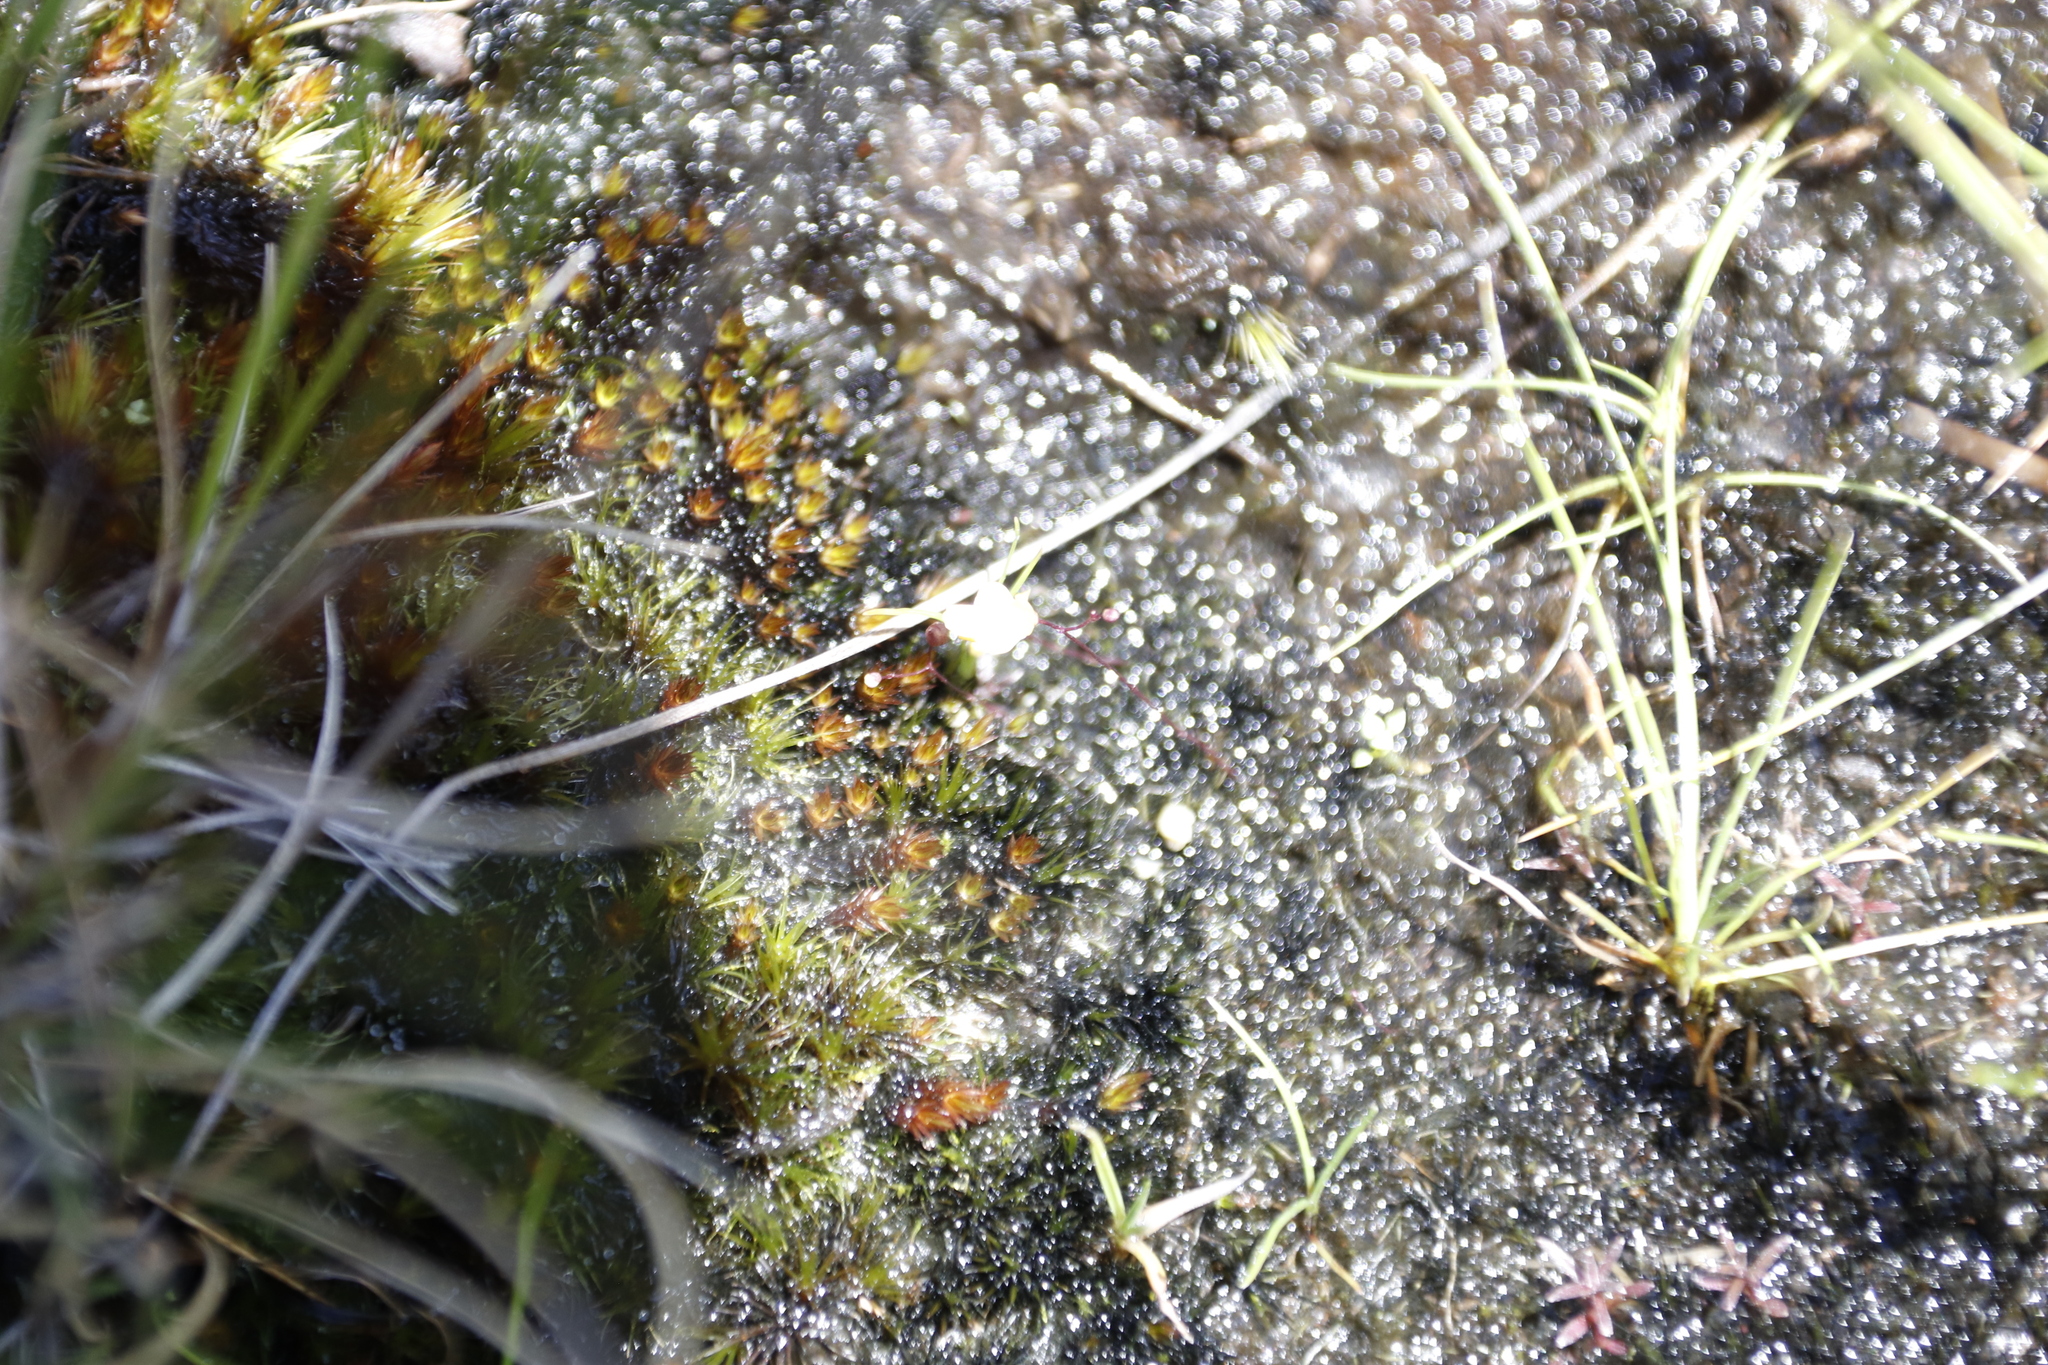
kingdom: Plantae
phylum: Tracheophyta
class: Magnoliopsida
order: Lamiales
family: Lentibulariaceae
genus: Utricularia
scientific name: Utricularia subulata
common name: Tiny bladderwort
